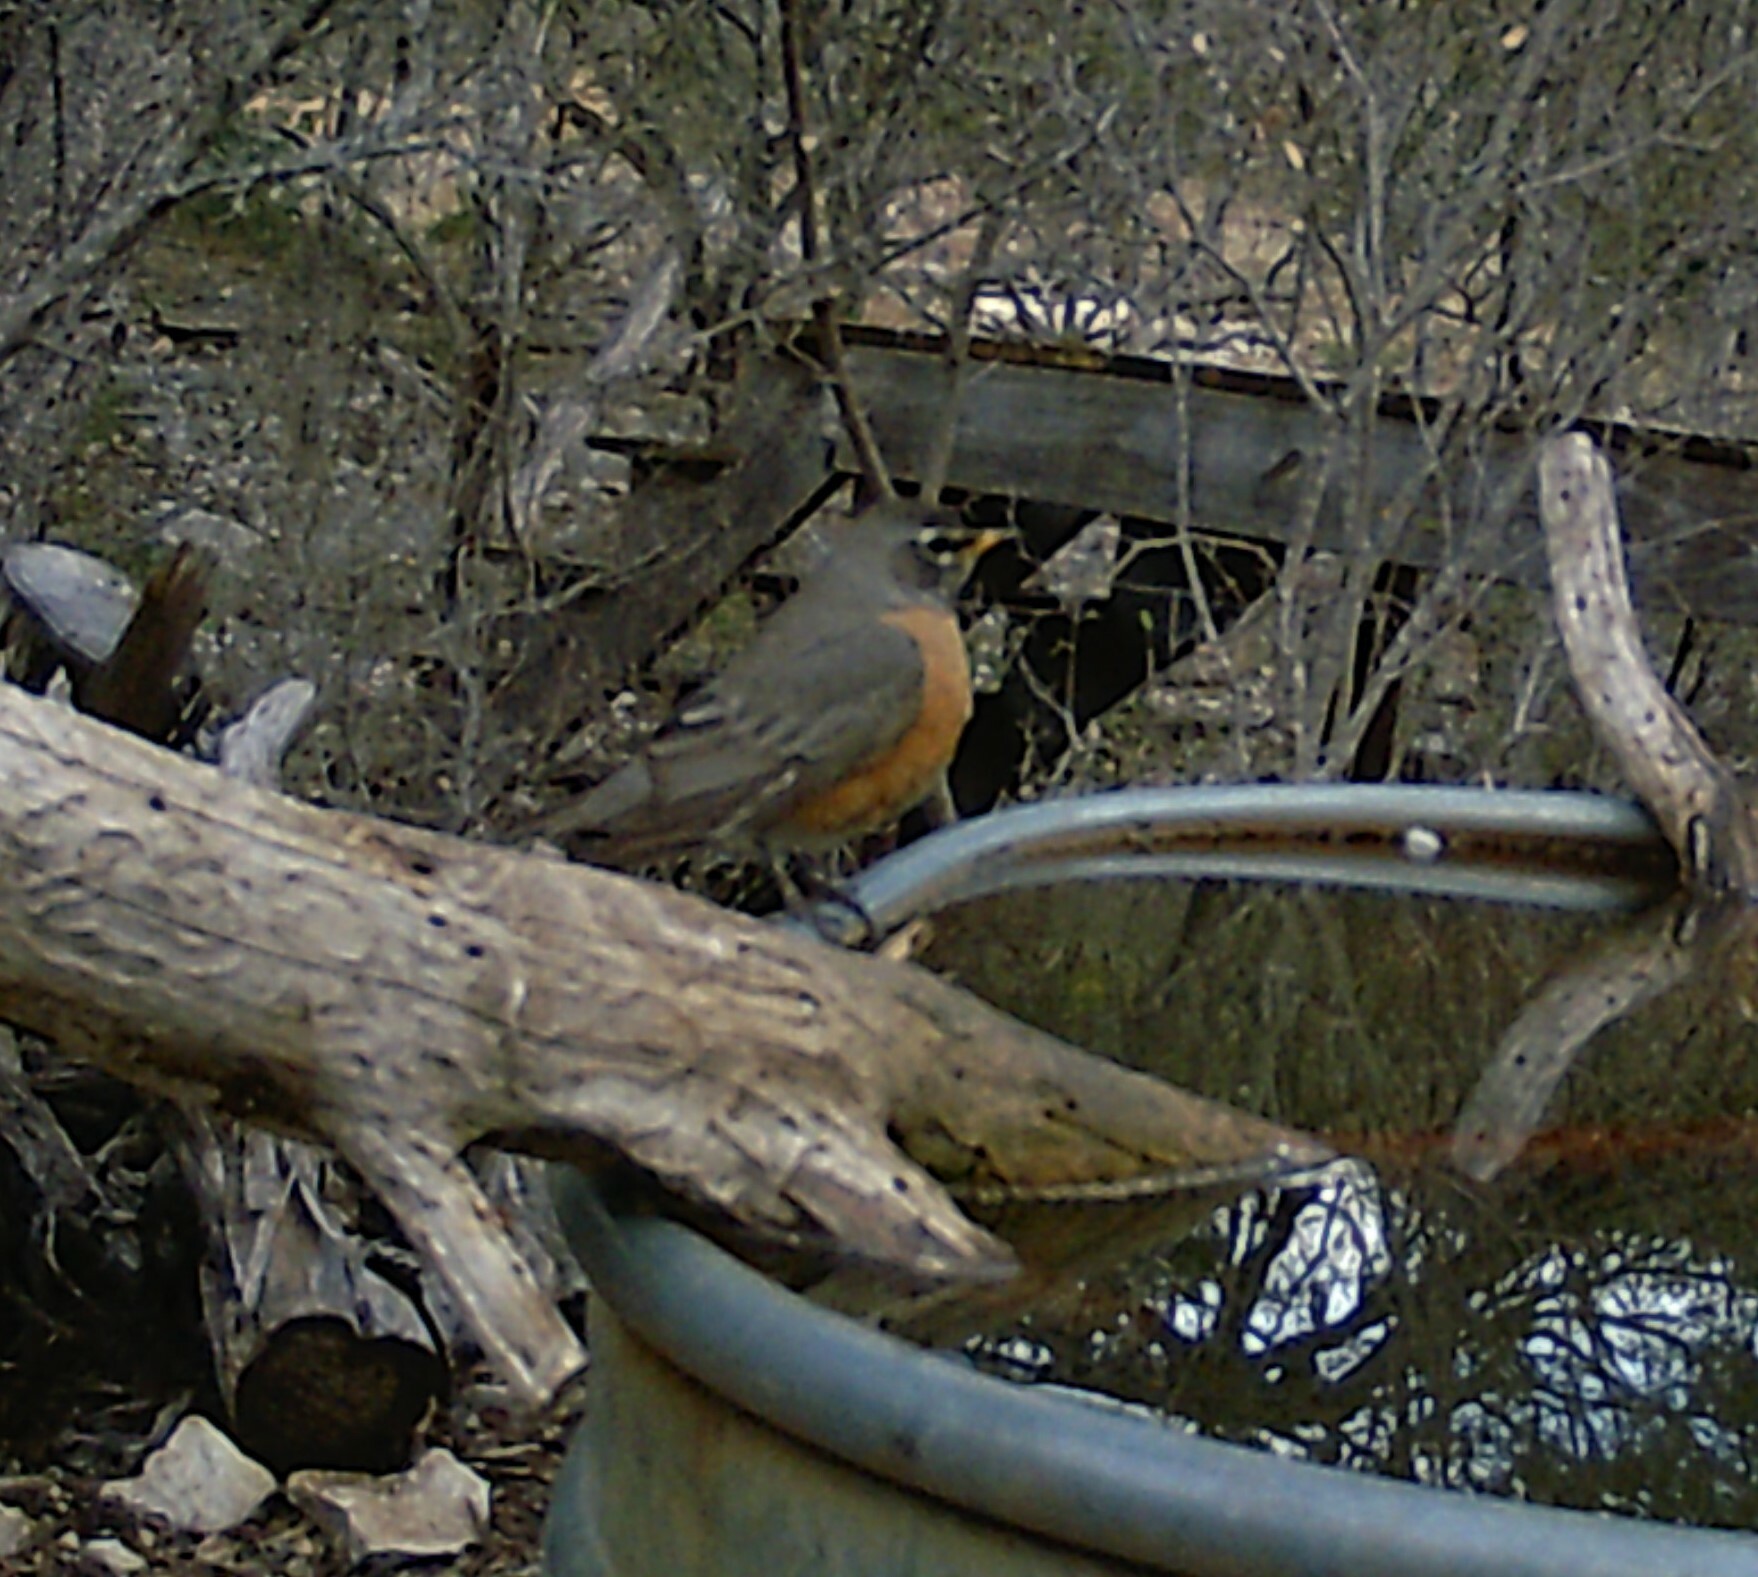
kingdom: Animalia
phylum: Chordata
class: Aves
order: Passeriformes
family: Turdidae
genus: Turdus
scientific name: Turdus migratorius
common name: American robin
